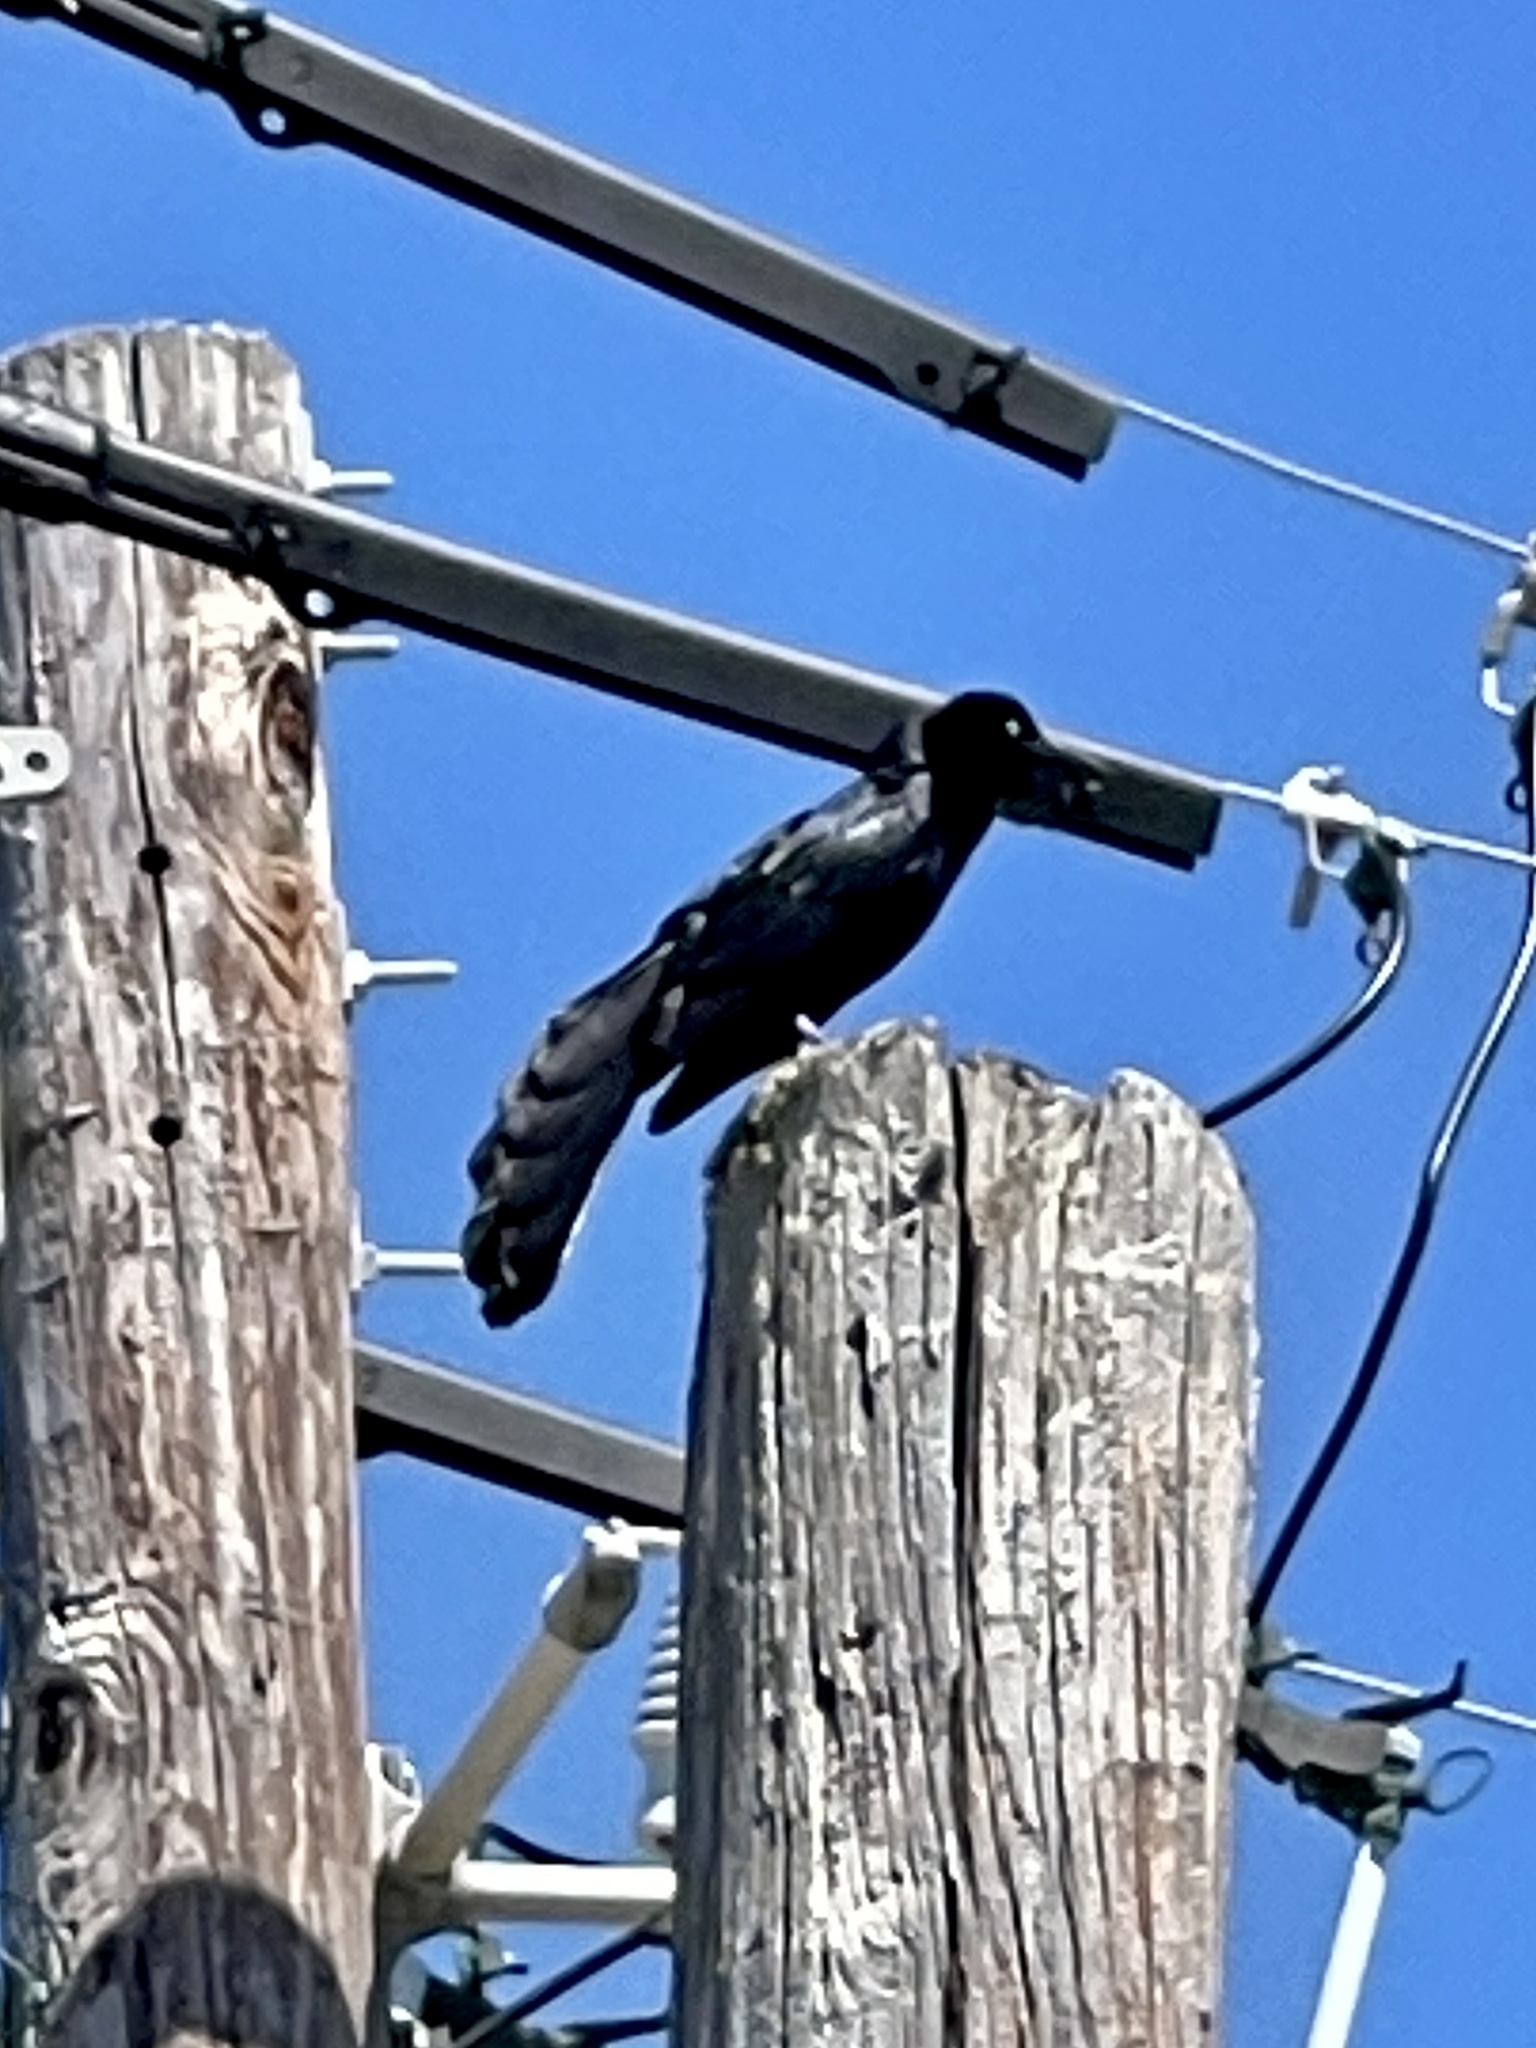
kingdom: Animalia
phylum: Chordata
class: Aves
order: Passeriformes
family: Icteridae
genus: Quiscalus
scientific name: Quiscalus mexicanus
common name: Great-tailed grackle
